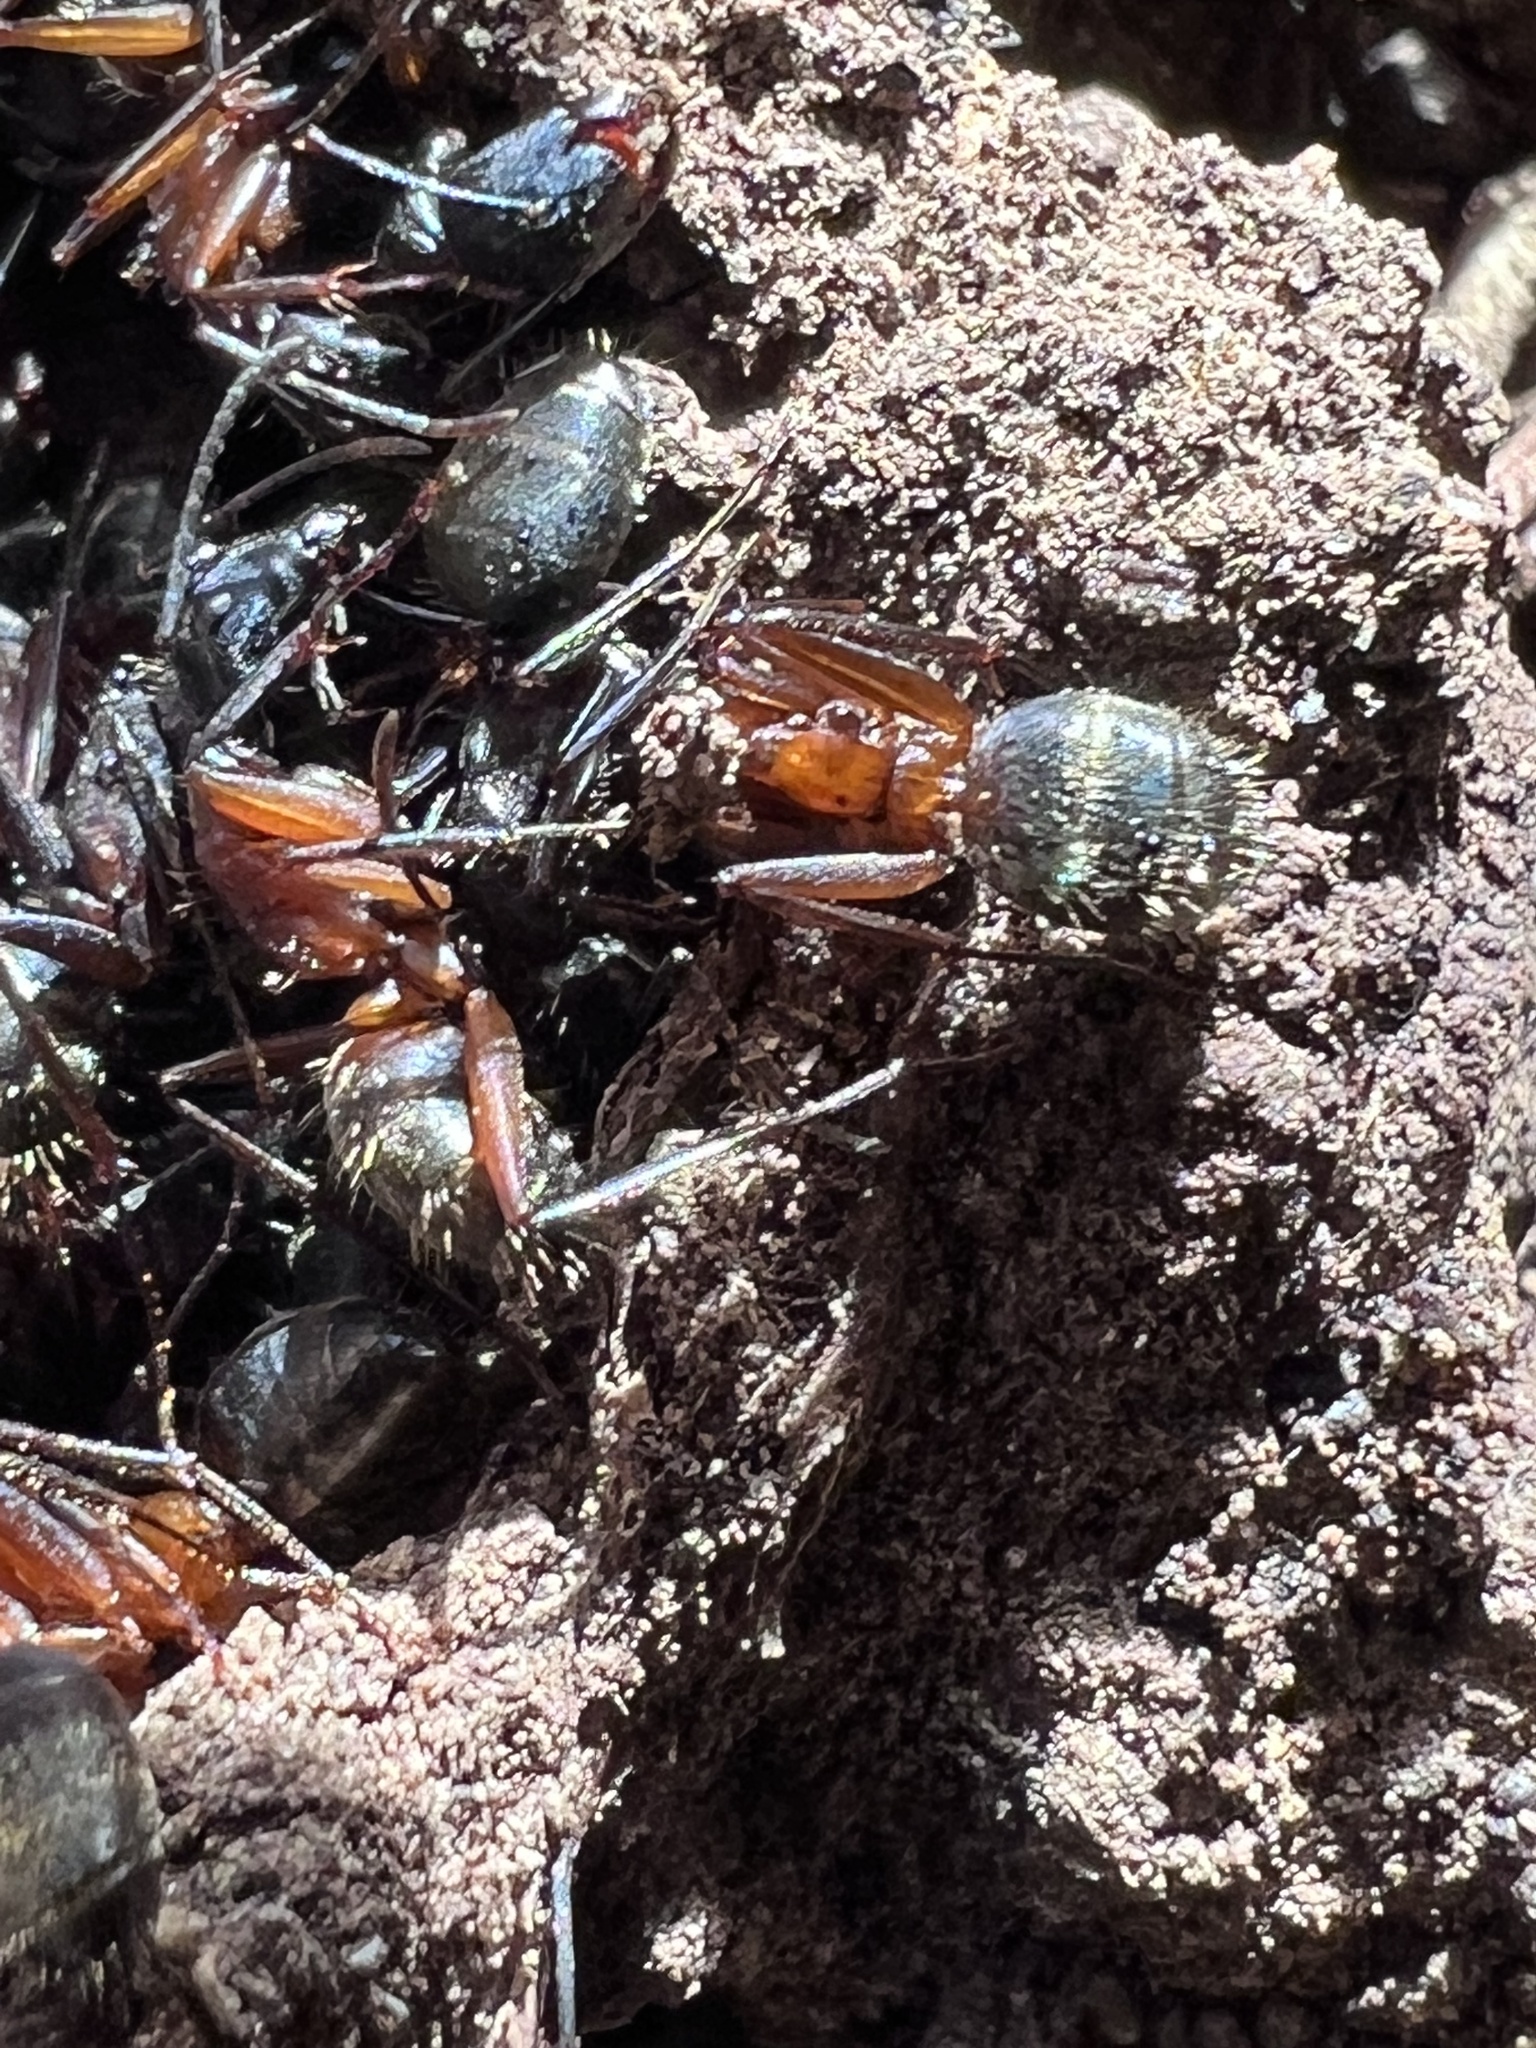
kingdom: Animalia
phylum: Arthropoda
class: Insecta
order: Hymenoptera
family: Formicidae
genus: Camponotus
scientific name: Camponotus chromaiodes
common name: Red carpenter ant
